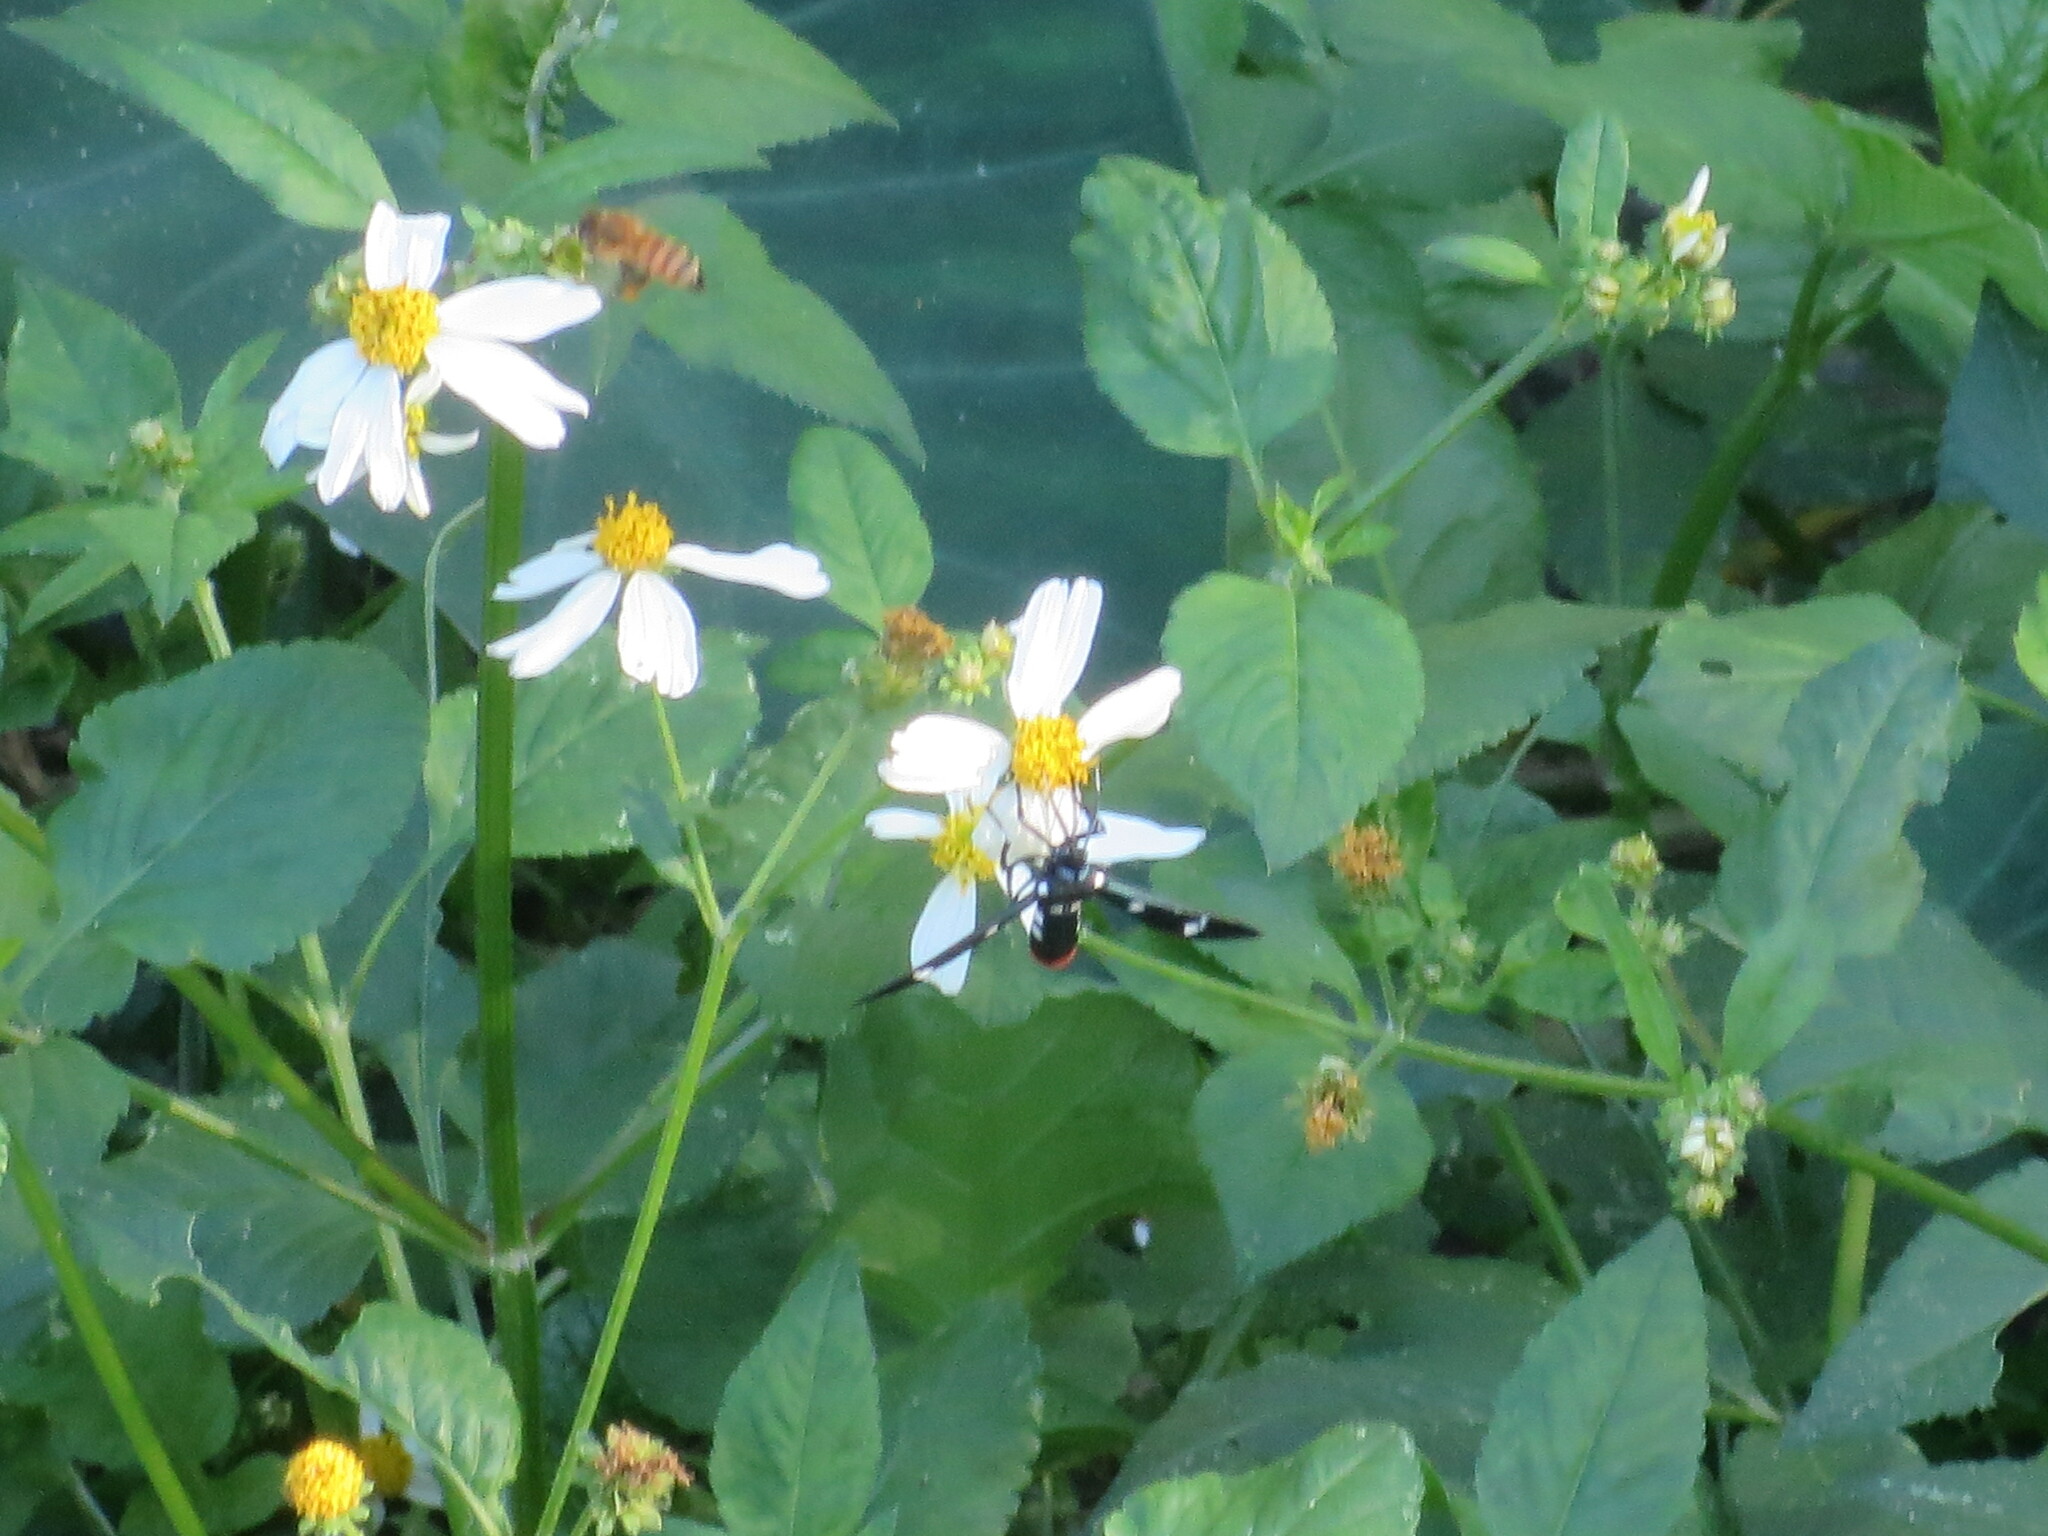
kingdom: Animalia
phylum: Arthropoda
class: Insecta
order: Lepidoptera
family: Erebidae
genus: Syntomeida
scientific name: Syntomeida epilais
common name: Polka-dot wasp moth
